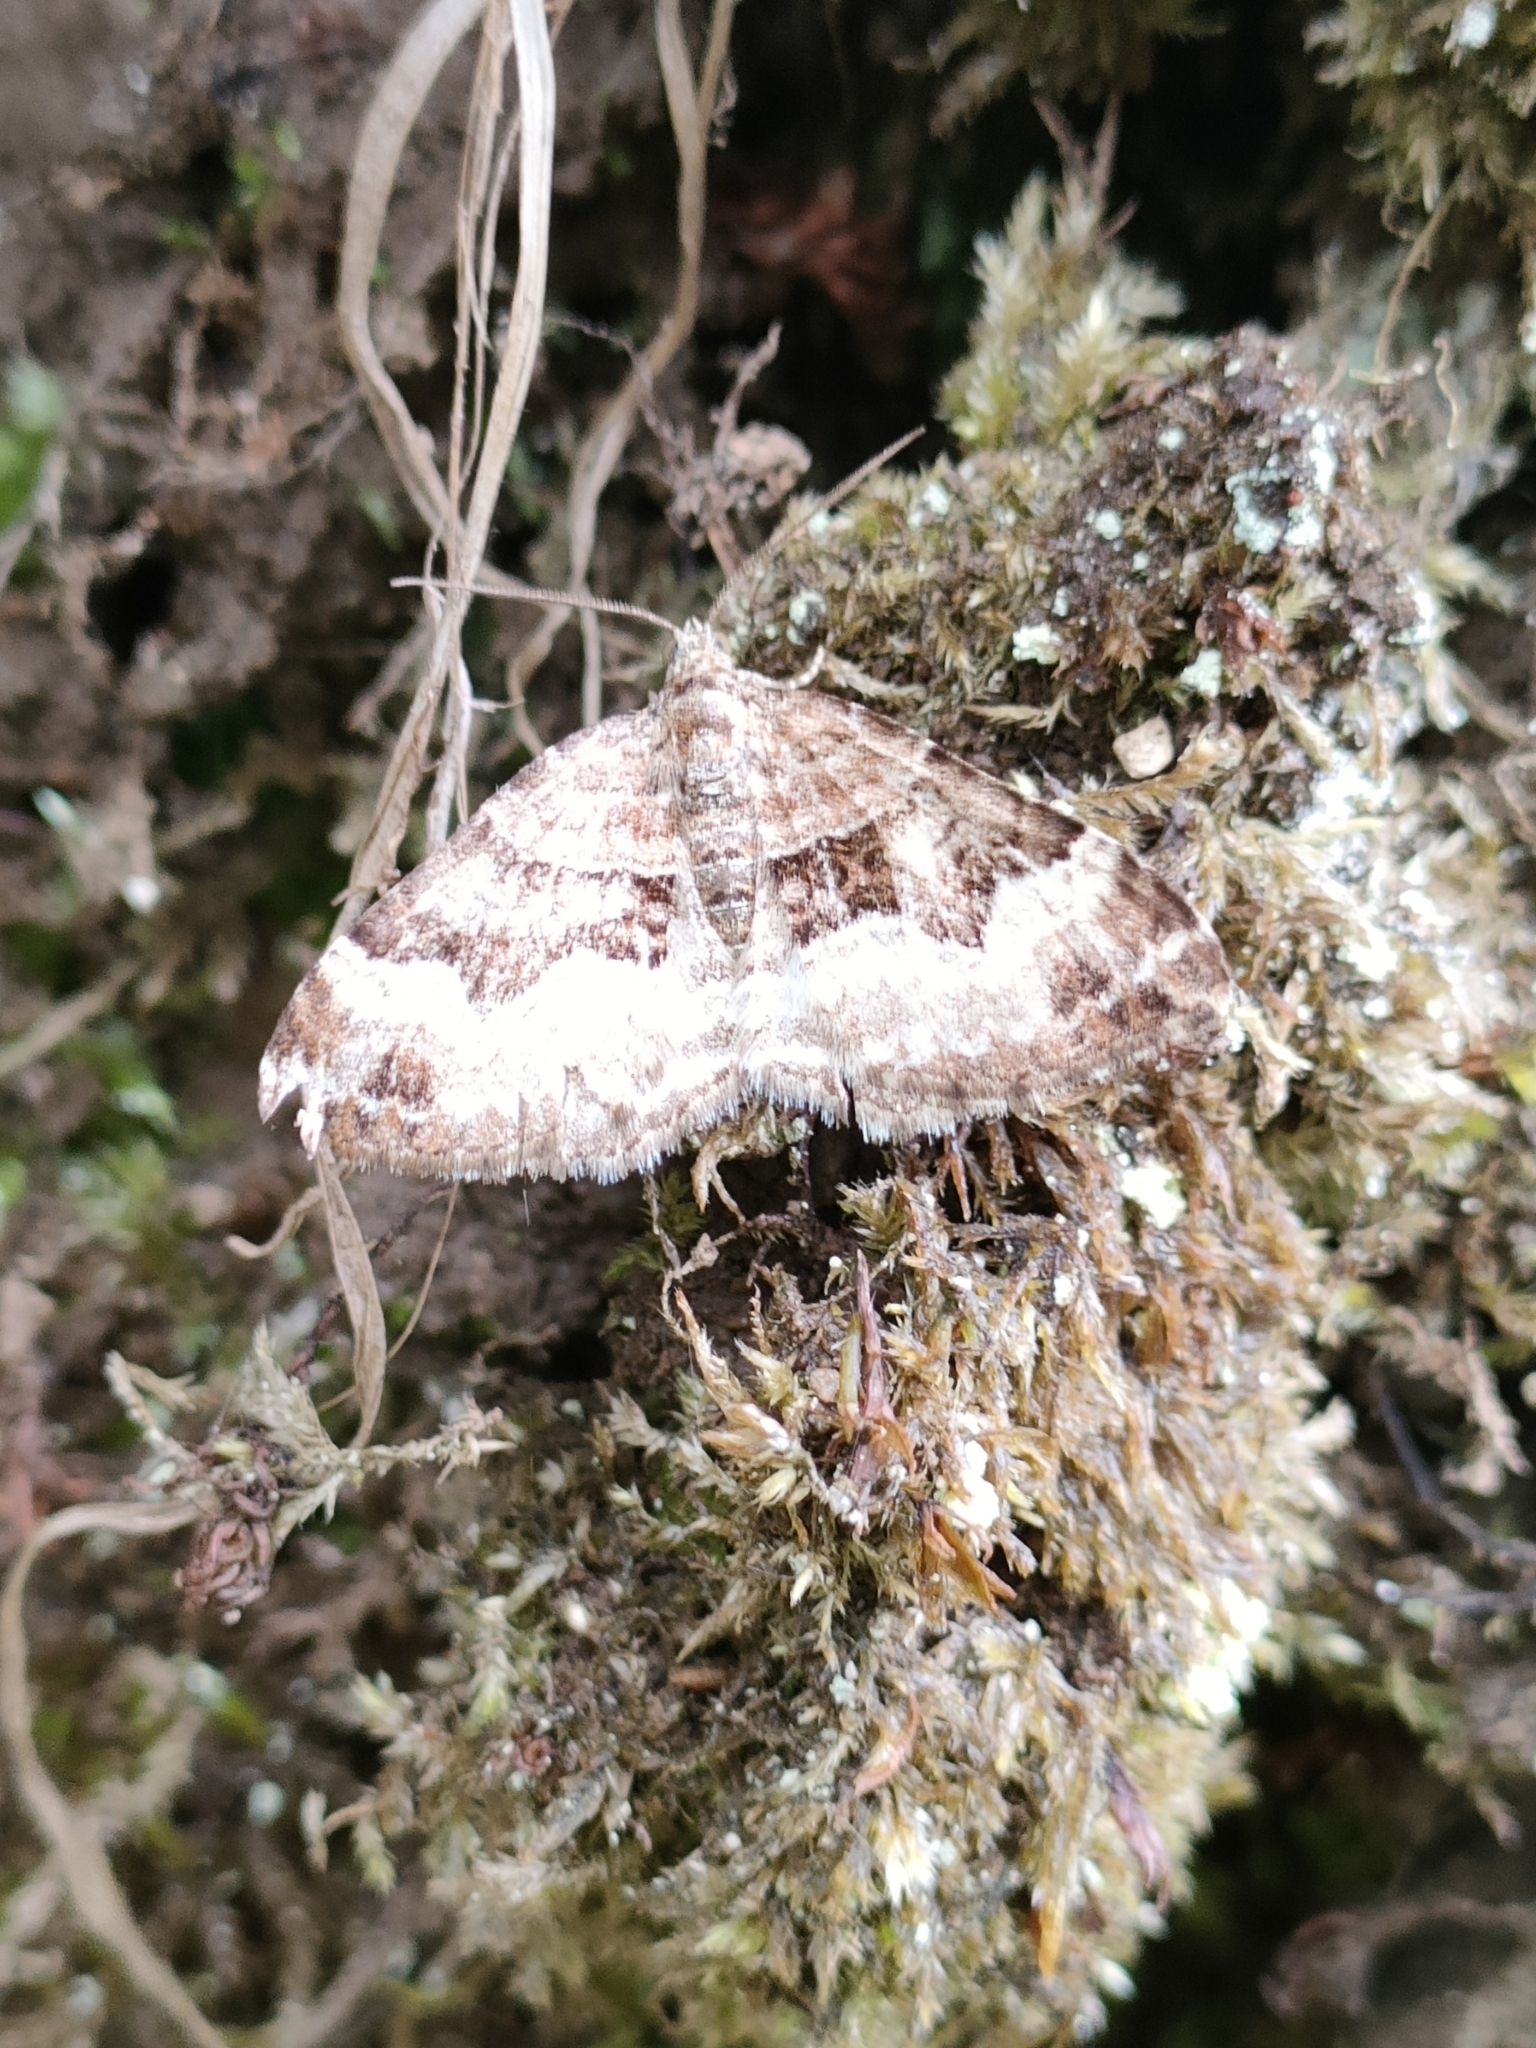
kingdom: Animalia
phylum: Arthropoda
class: Insecta
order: Lepidoptera
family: Geometridae
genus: Xanthorhoe
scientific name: Xanthorhoe biriviata
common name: Balsam carpet
